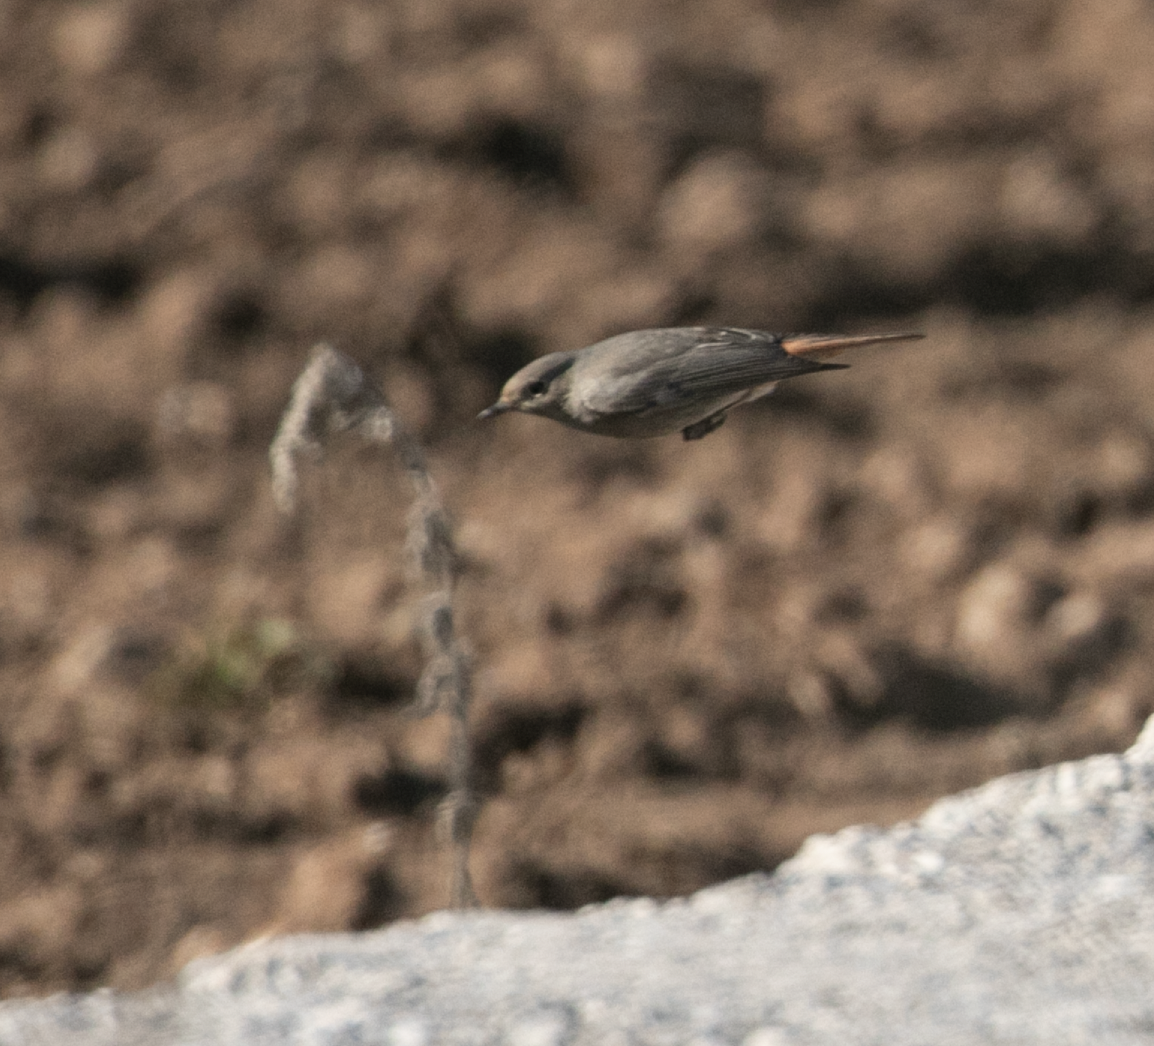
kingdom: Animalia
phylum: Chordata
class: Aves
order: Passeriformes
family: Muscicapidae
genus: Phoenicurus
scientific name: Phoenicurus ochruros
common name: Black redstart
